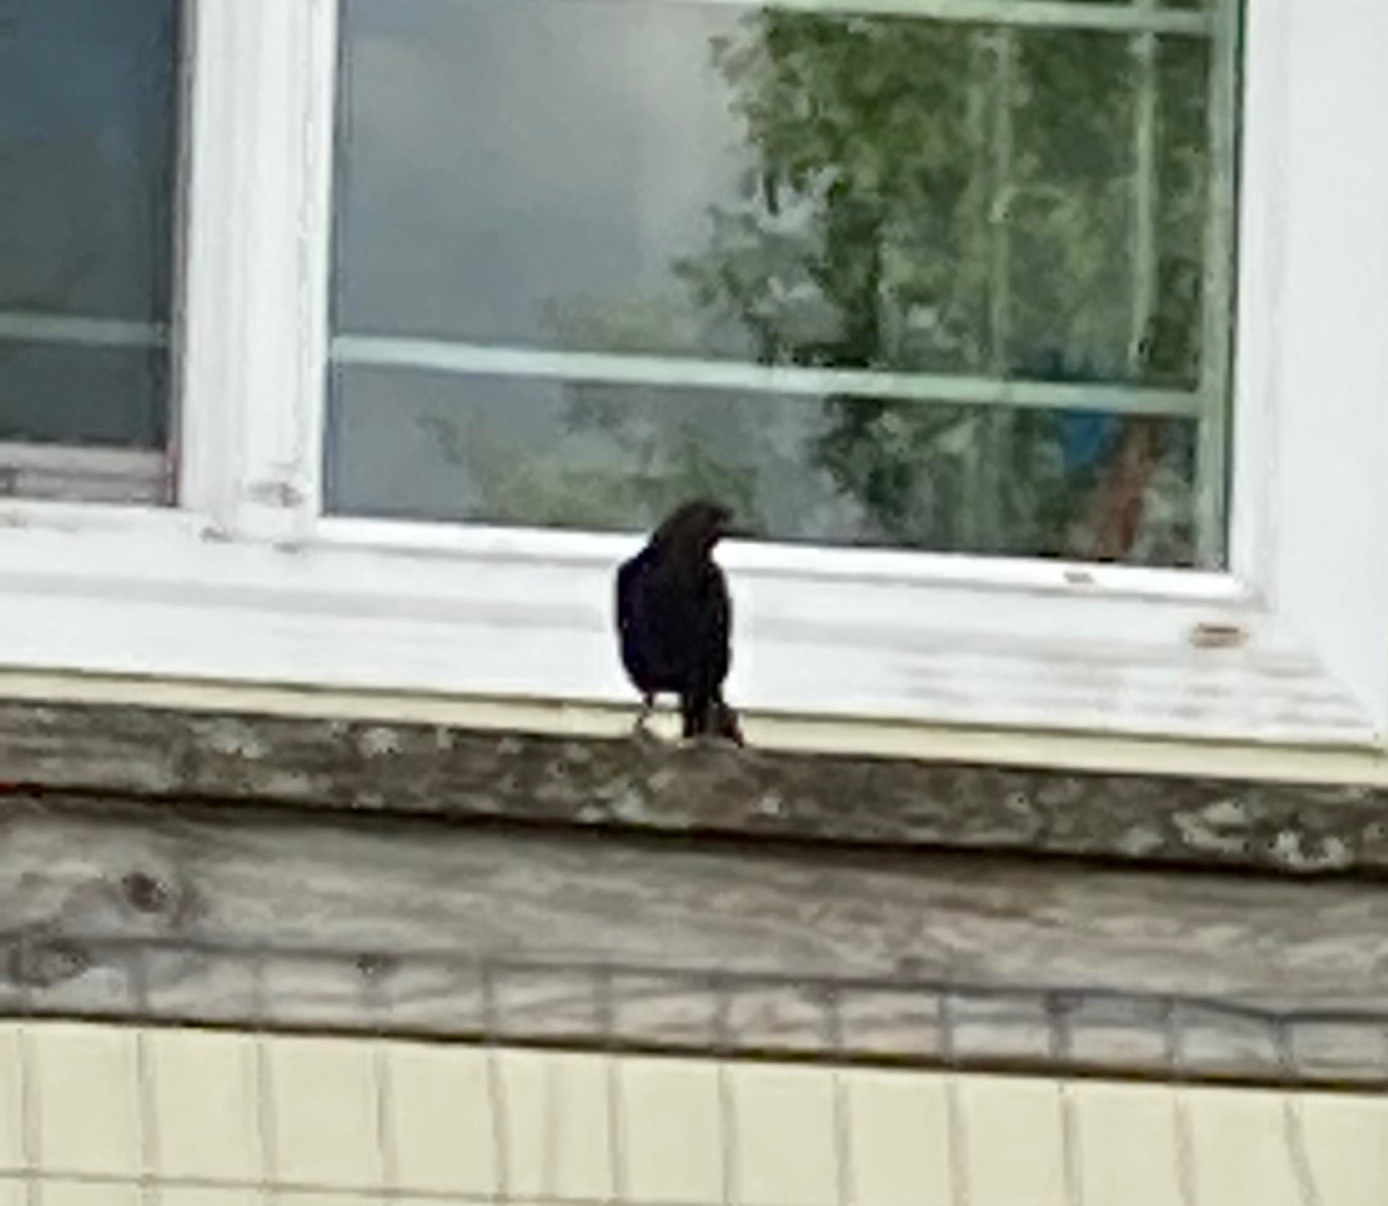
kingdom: Animalia
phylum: Chordata
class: Aves
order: Passeriformes
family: Icteridae
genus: Molothrus
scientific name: Molothrus ater
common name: Brown-headed cowbird
